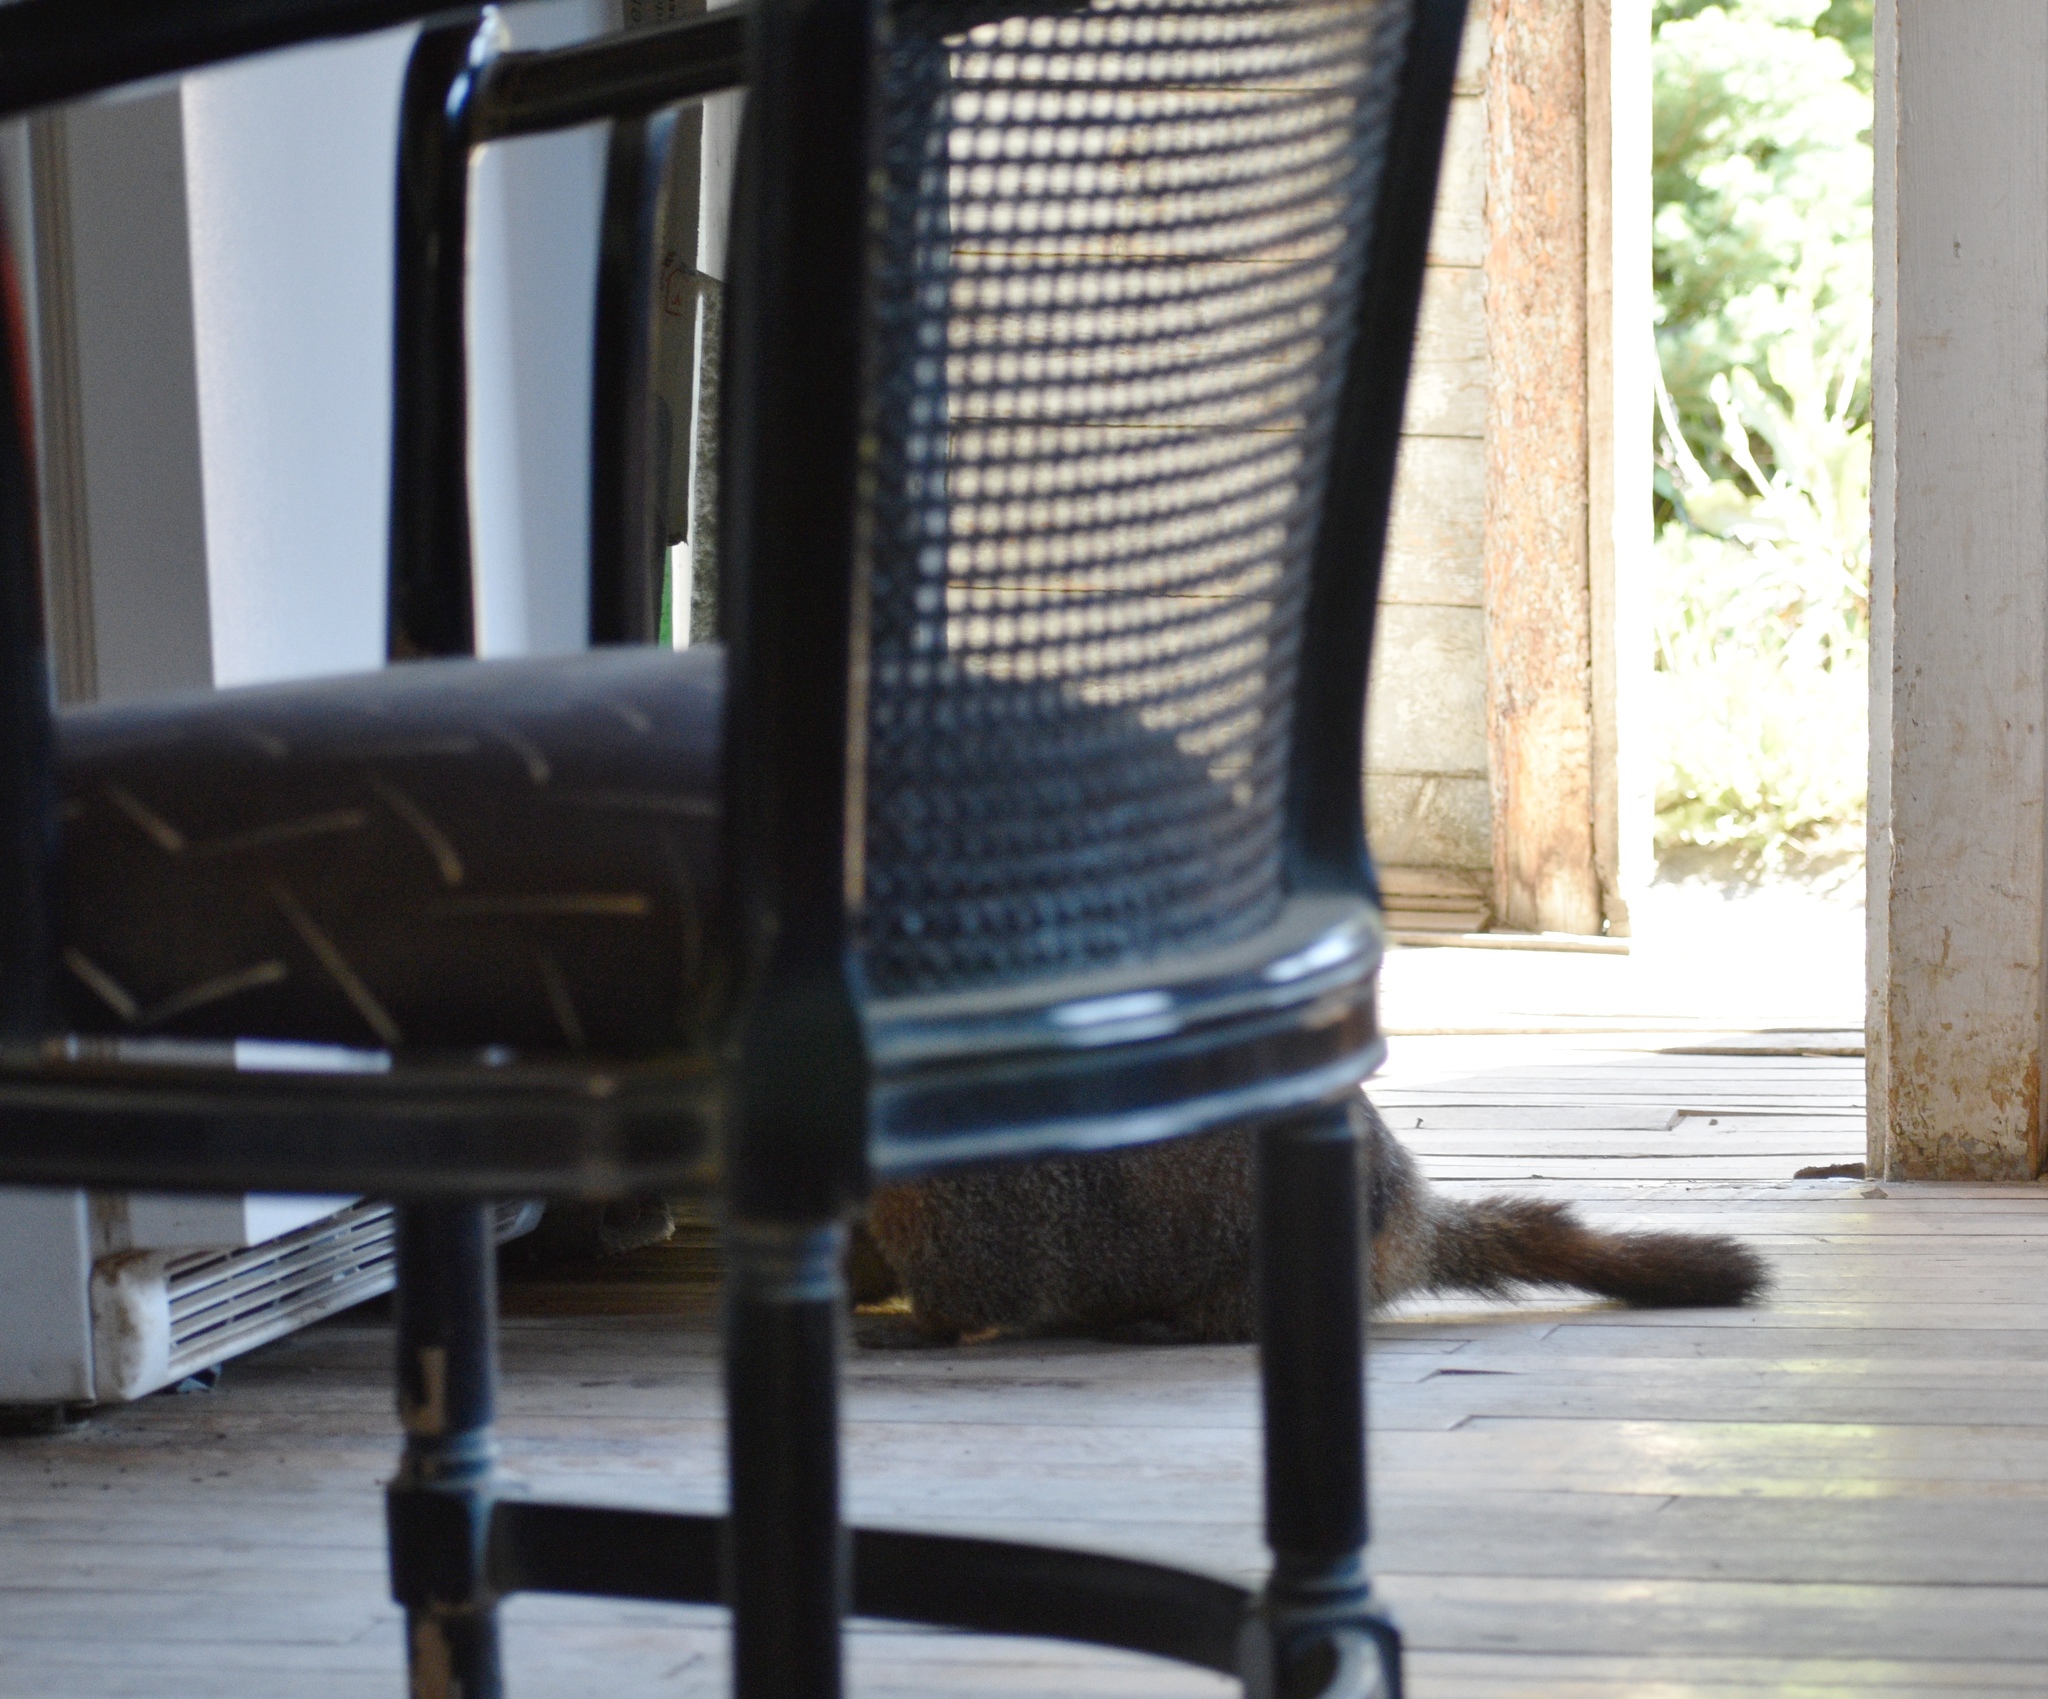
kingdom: Animalia
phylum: Chordata
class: Mammalia
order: Rodentia
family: Sciuridae
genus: Marmota
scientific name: Marmota flaviventris
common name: Yellow-bellied marmot
